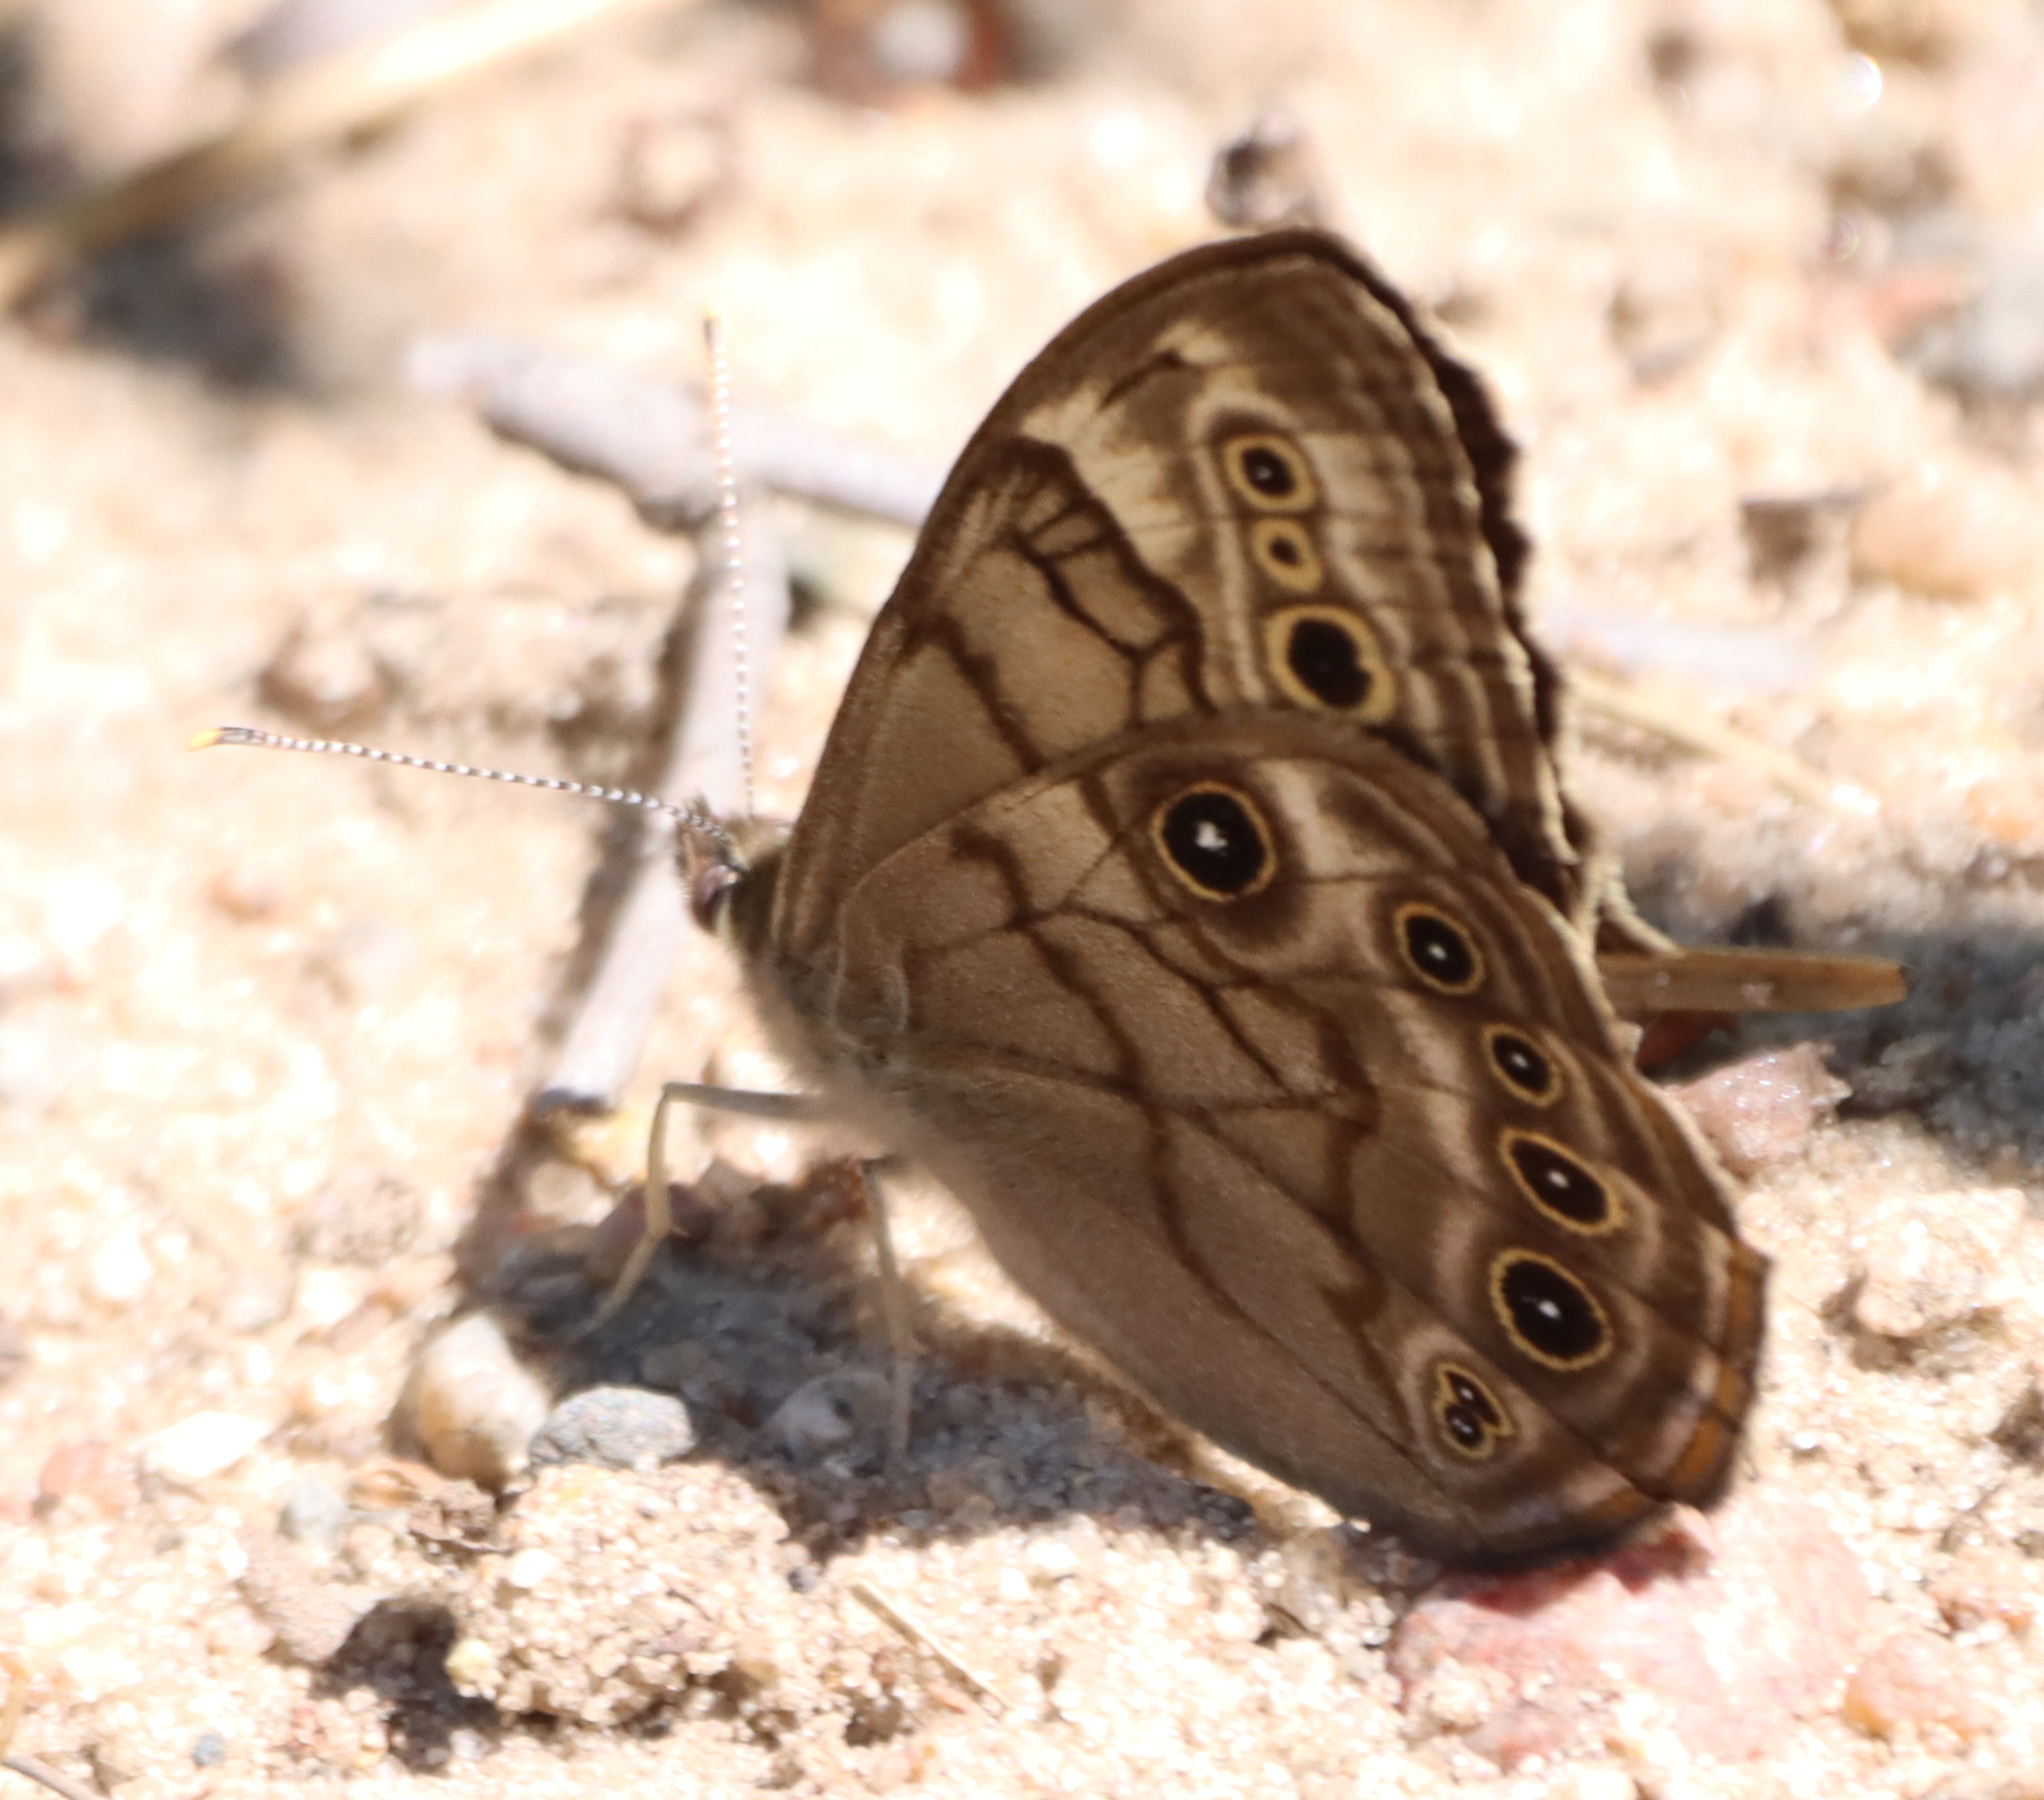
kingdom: Animalia
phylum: Arthropoda
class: Insecta
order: Lepidoptera
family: Nymphalidae
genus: Lethe
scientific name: Lethe anthedon
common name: Northern pearly-eye
